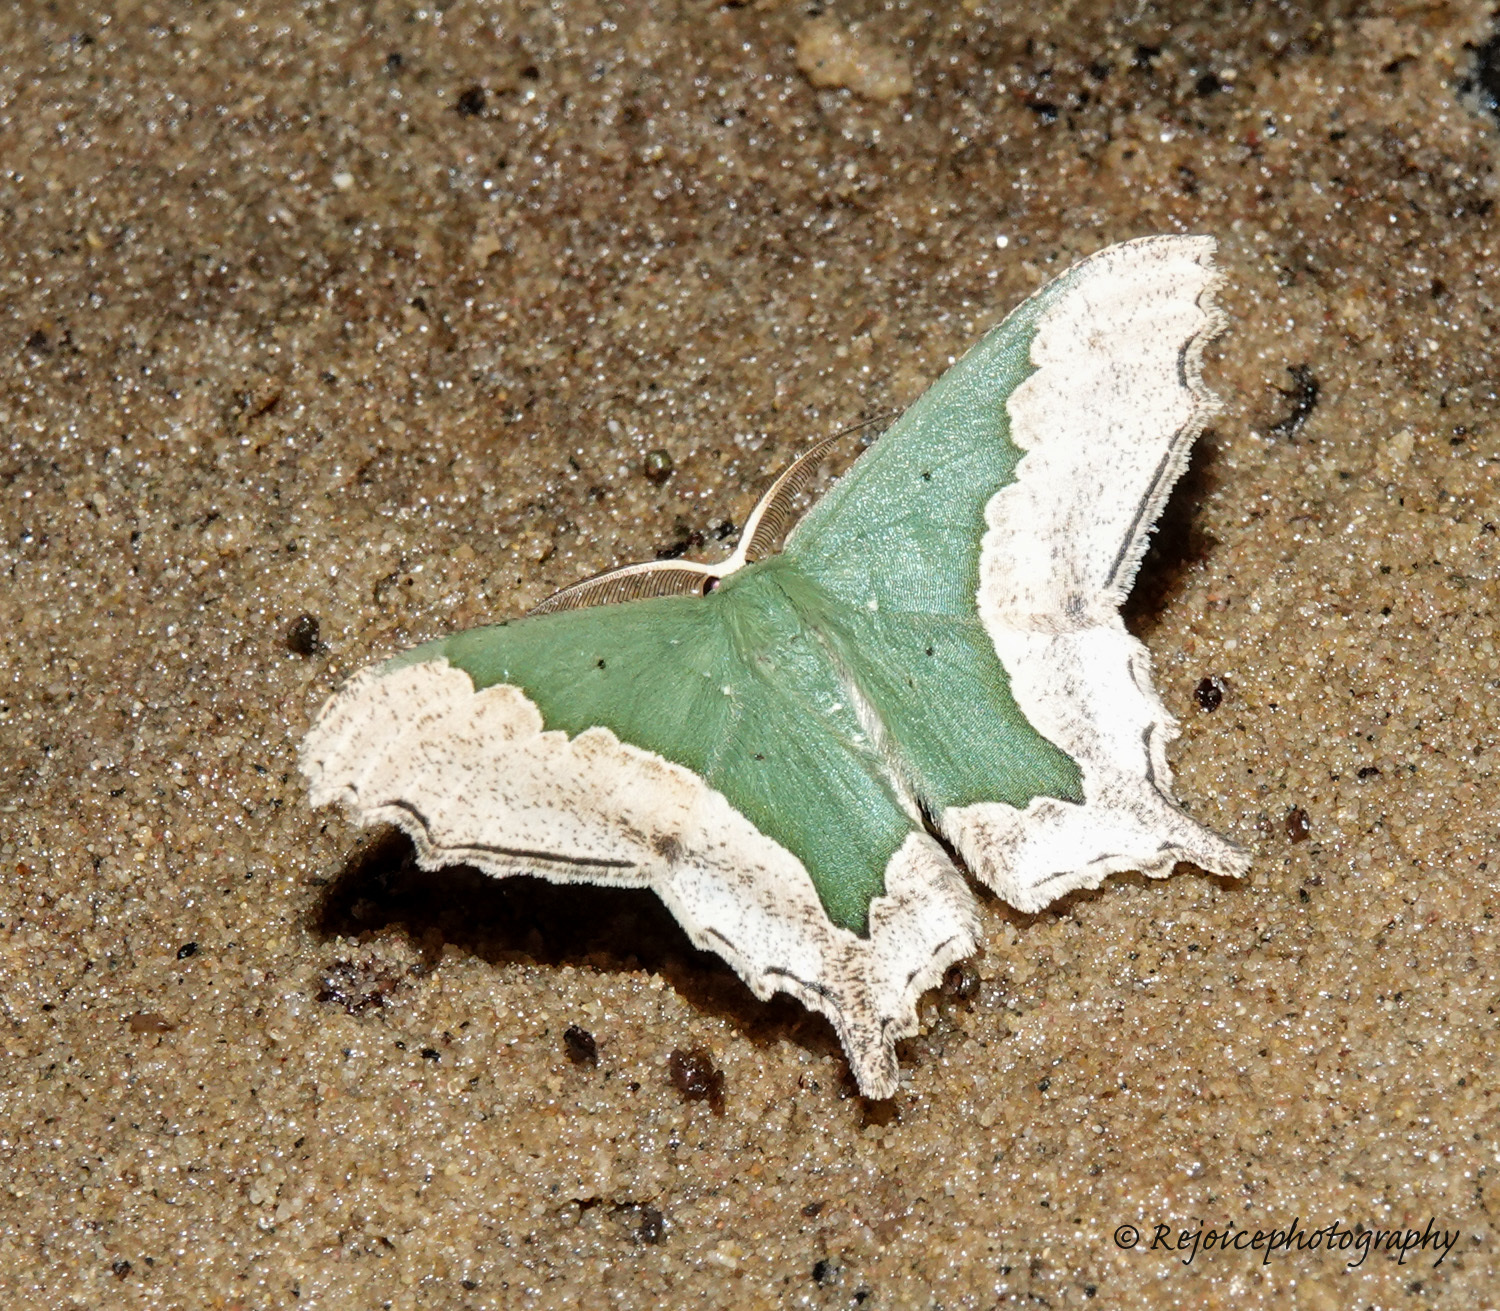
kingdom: Animalia
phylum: Arthropoda
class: Insecta
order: Lepidoptera
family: Geometridae
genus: Maxates
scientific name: Maxates macariata
